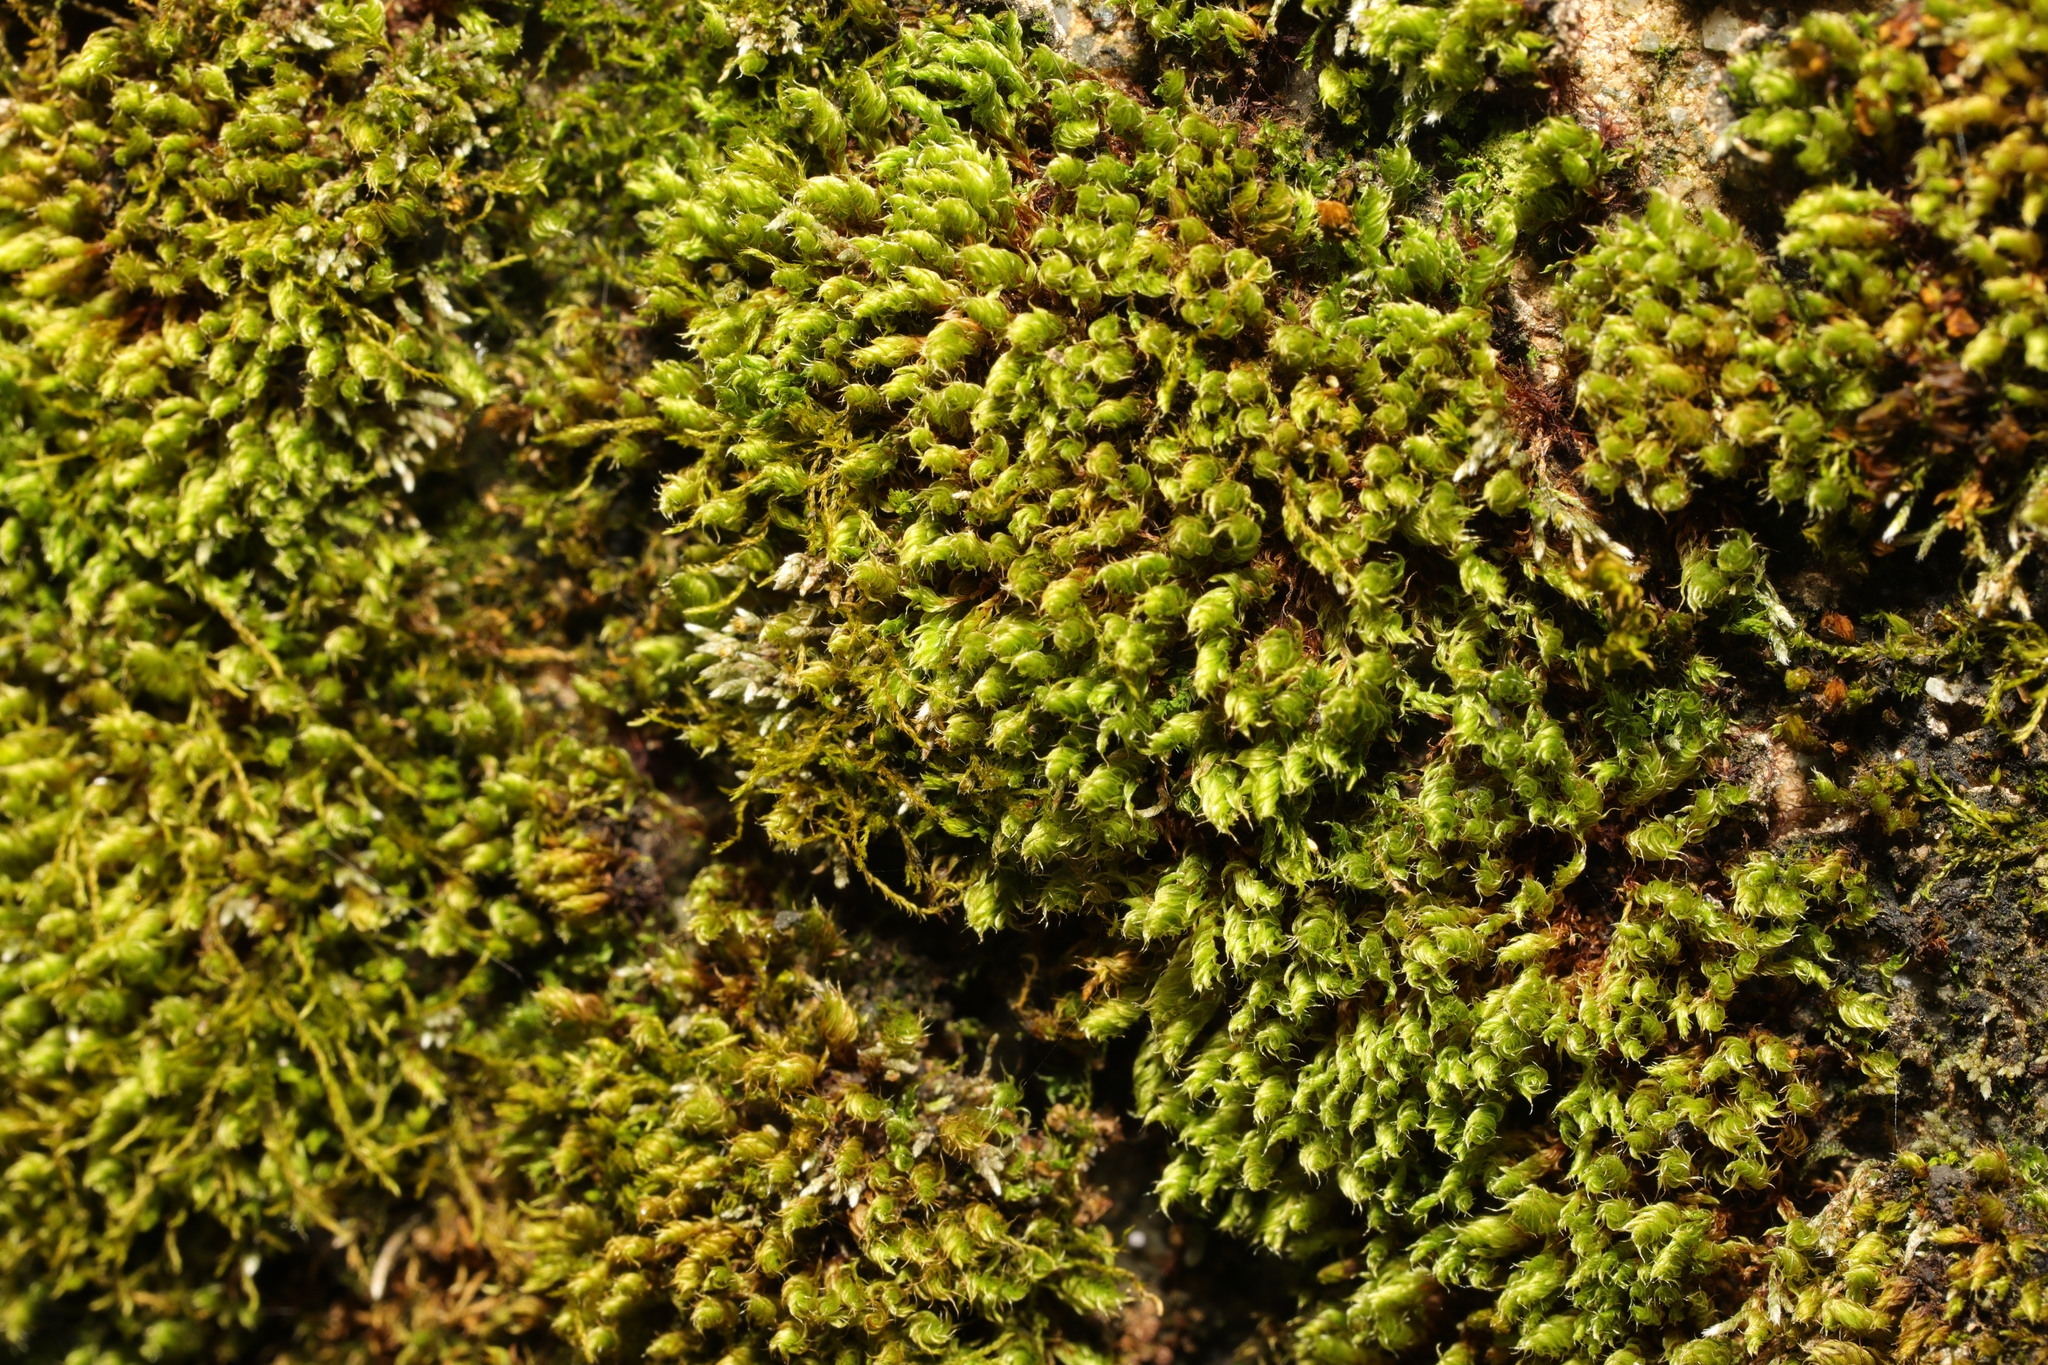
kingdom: Plantae
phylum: Bryophyta
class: Bryopsida
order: Bryales
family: Bryaceae
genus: Rosulabryum
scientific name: Rosulabryum capillare
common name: Capillary thread-moss
